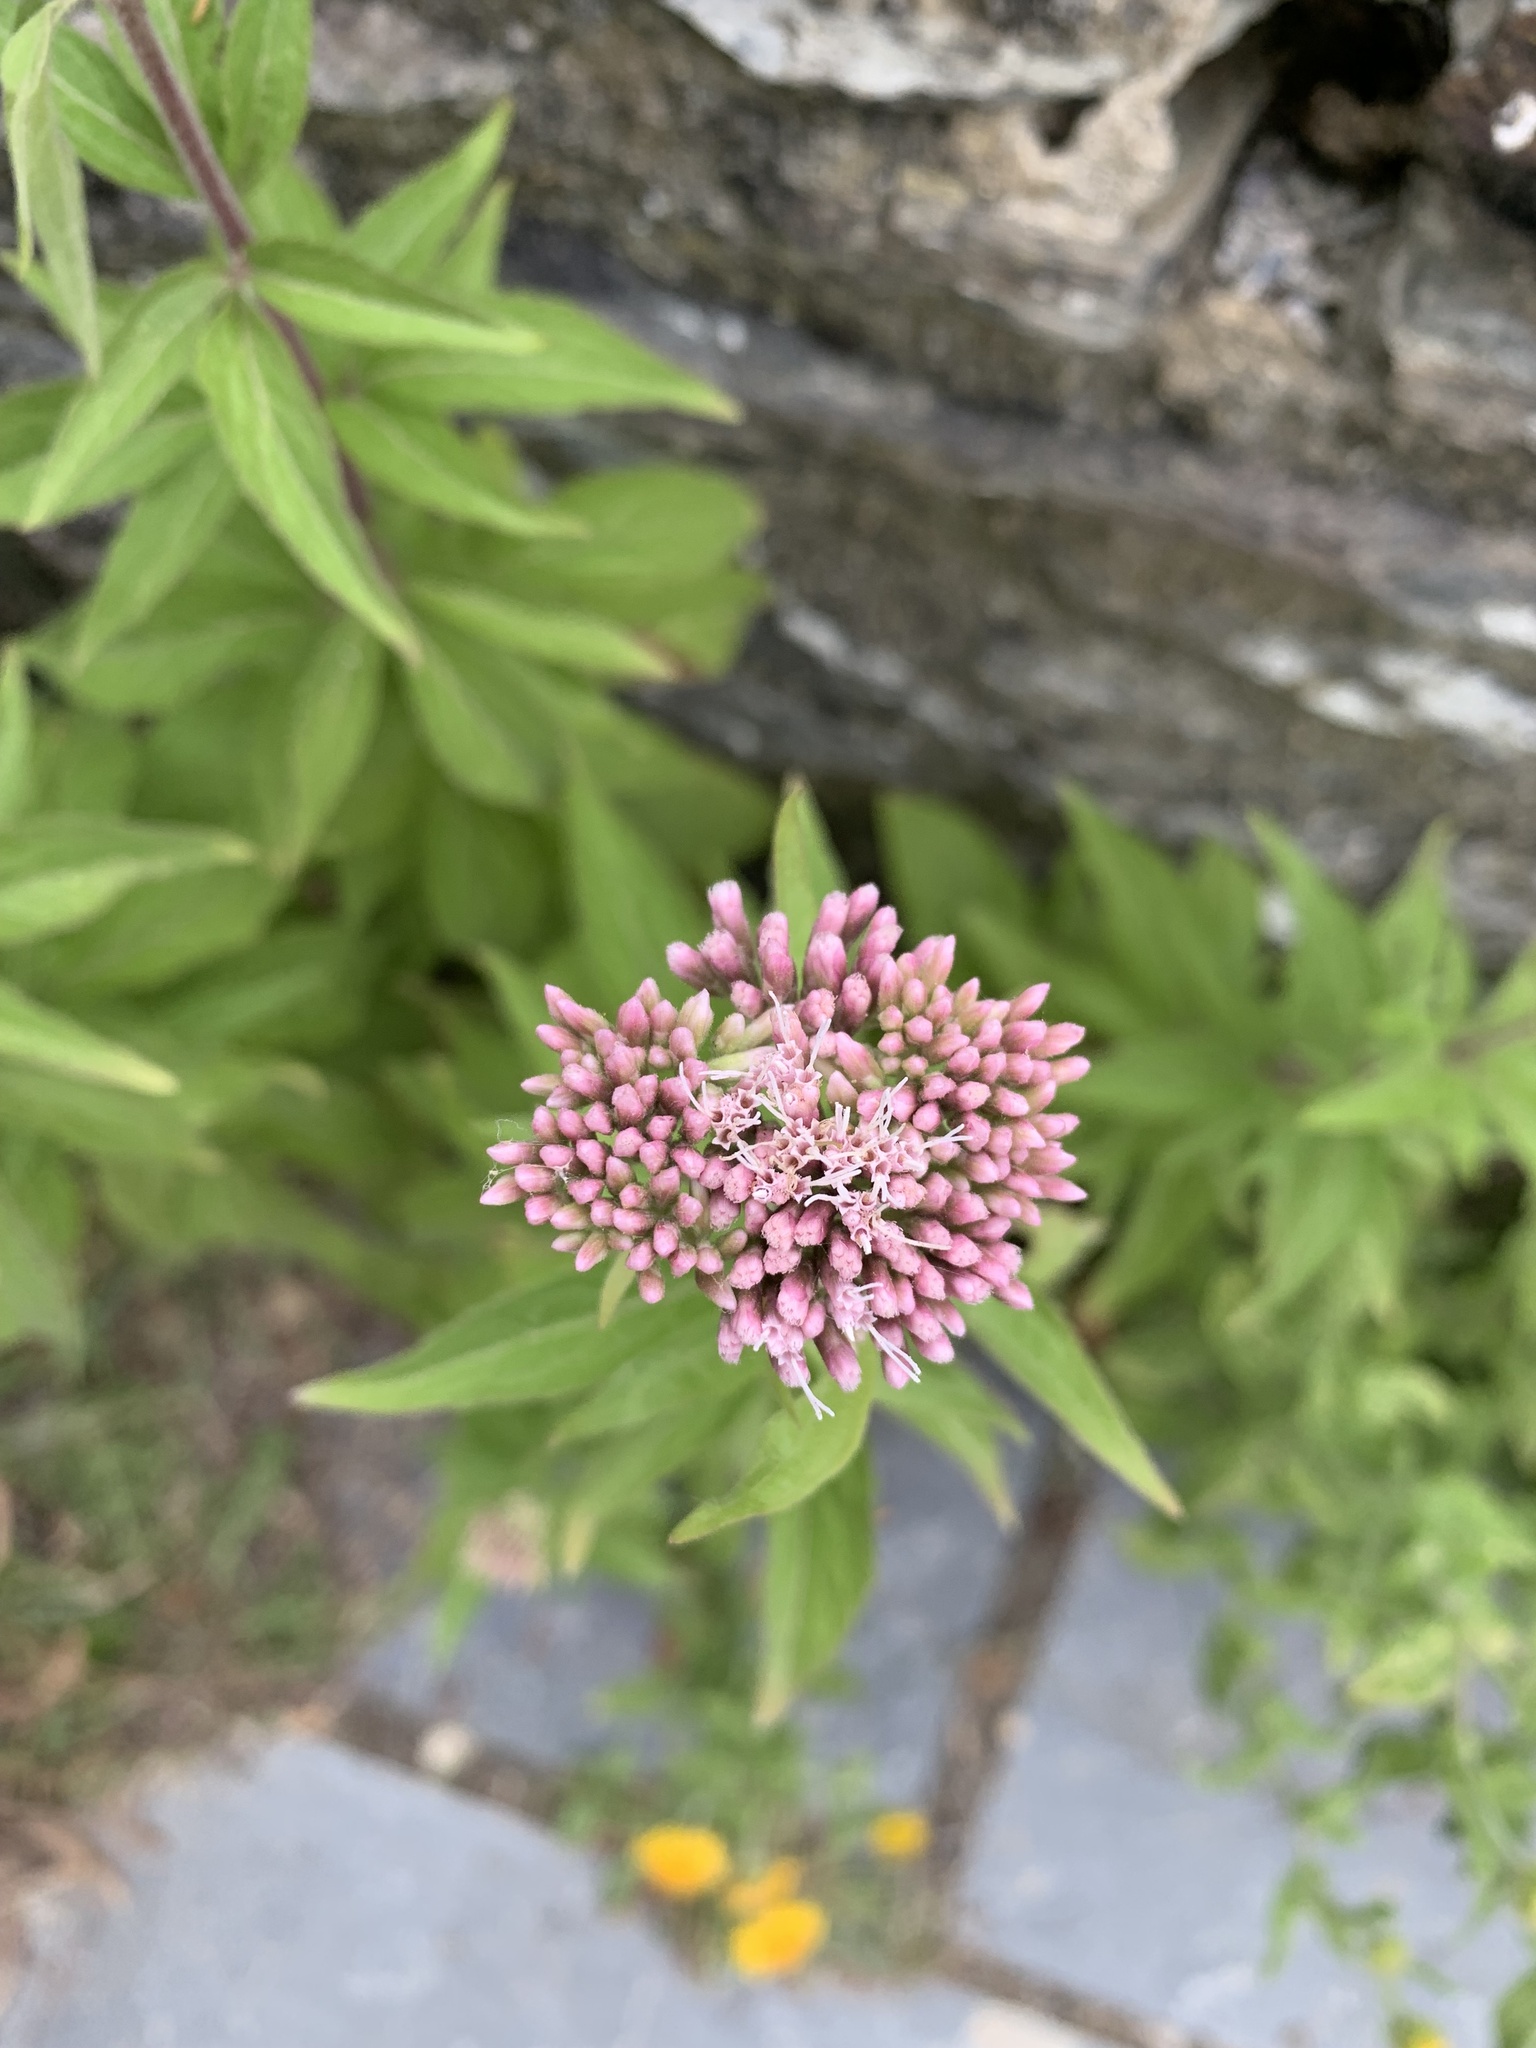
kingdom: Plantae
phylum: Tracheophyta
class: Magnoliopsida
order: Asterales
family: Asteraceae
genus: Eupatorium
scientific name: Eupatorium cannabinum
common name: Hemp-agrimony
